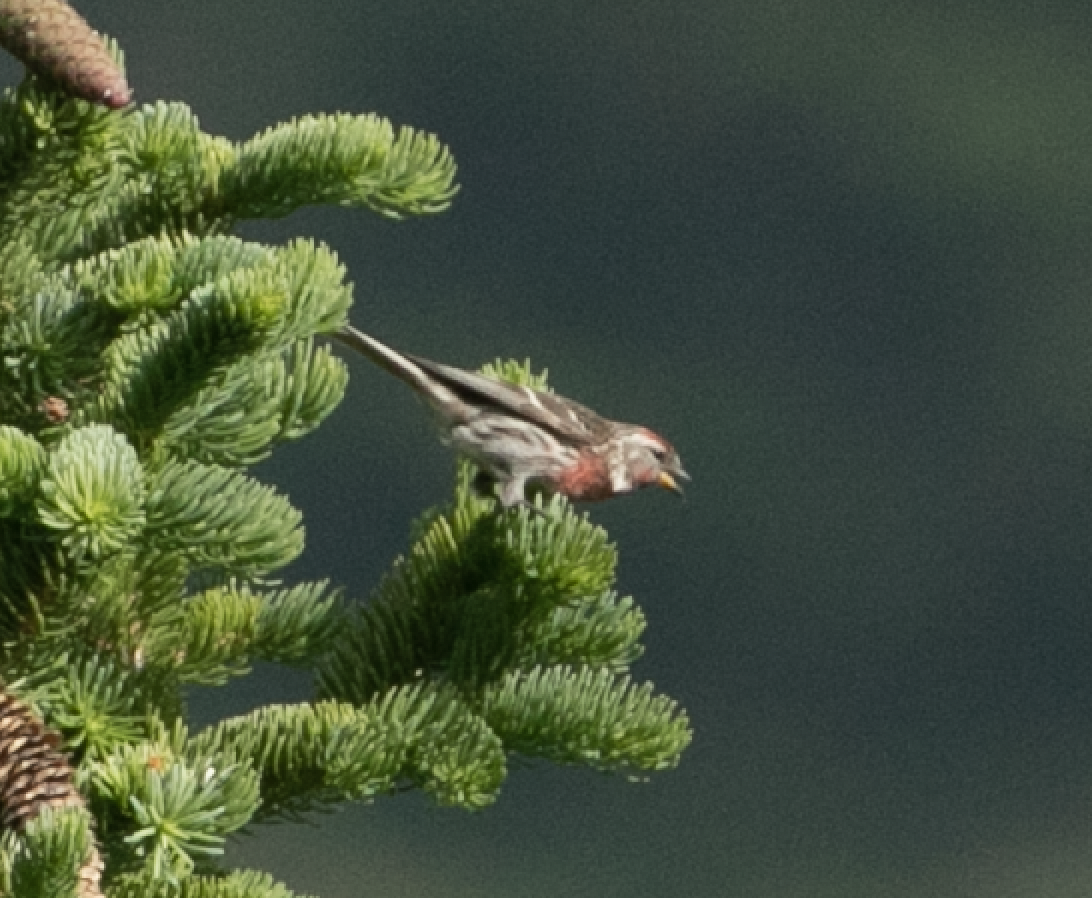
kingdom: Animalia
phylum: Chordata
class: Aves
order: Passeriformes
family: Fringillidae
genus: Acanthis
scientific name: Acanthis flammea
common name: Common redpoll
